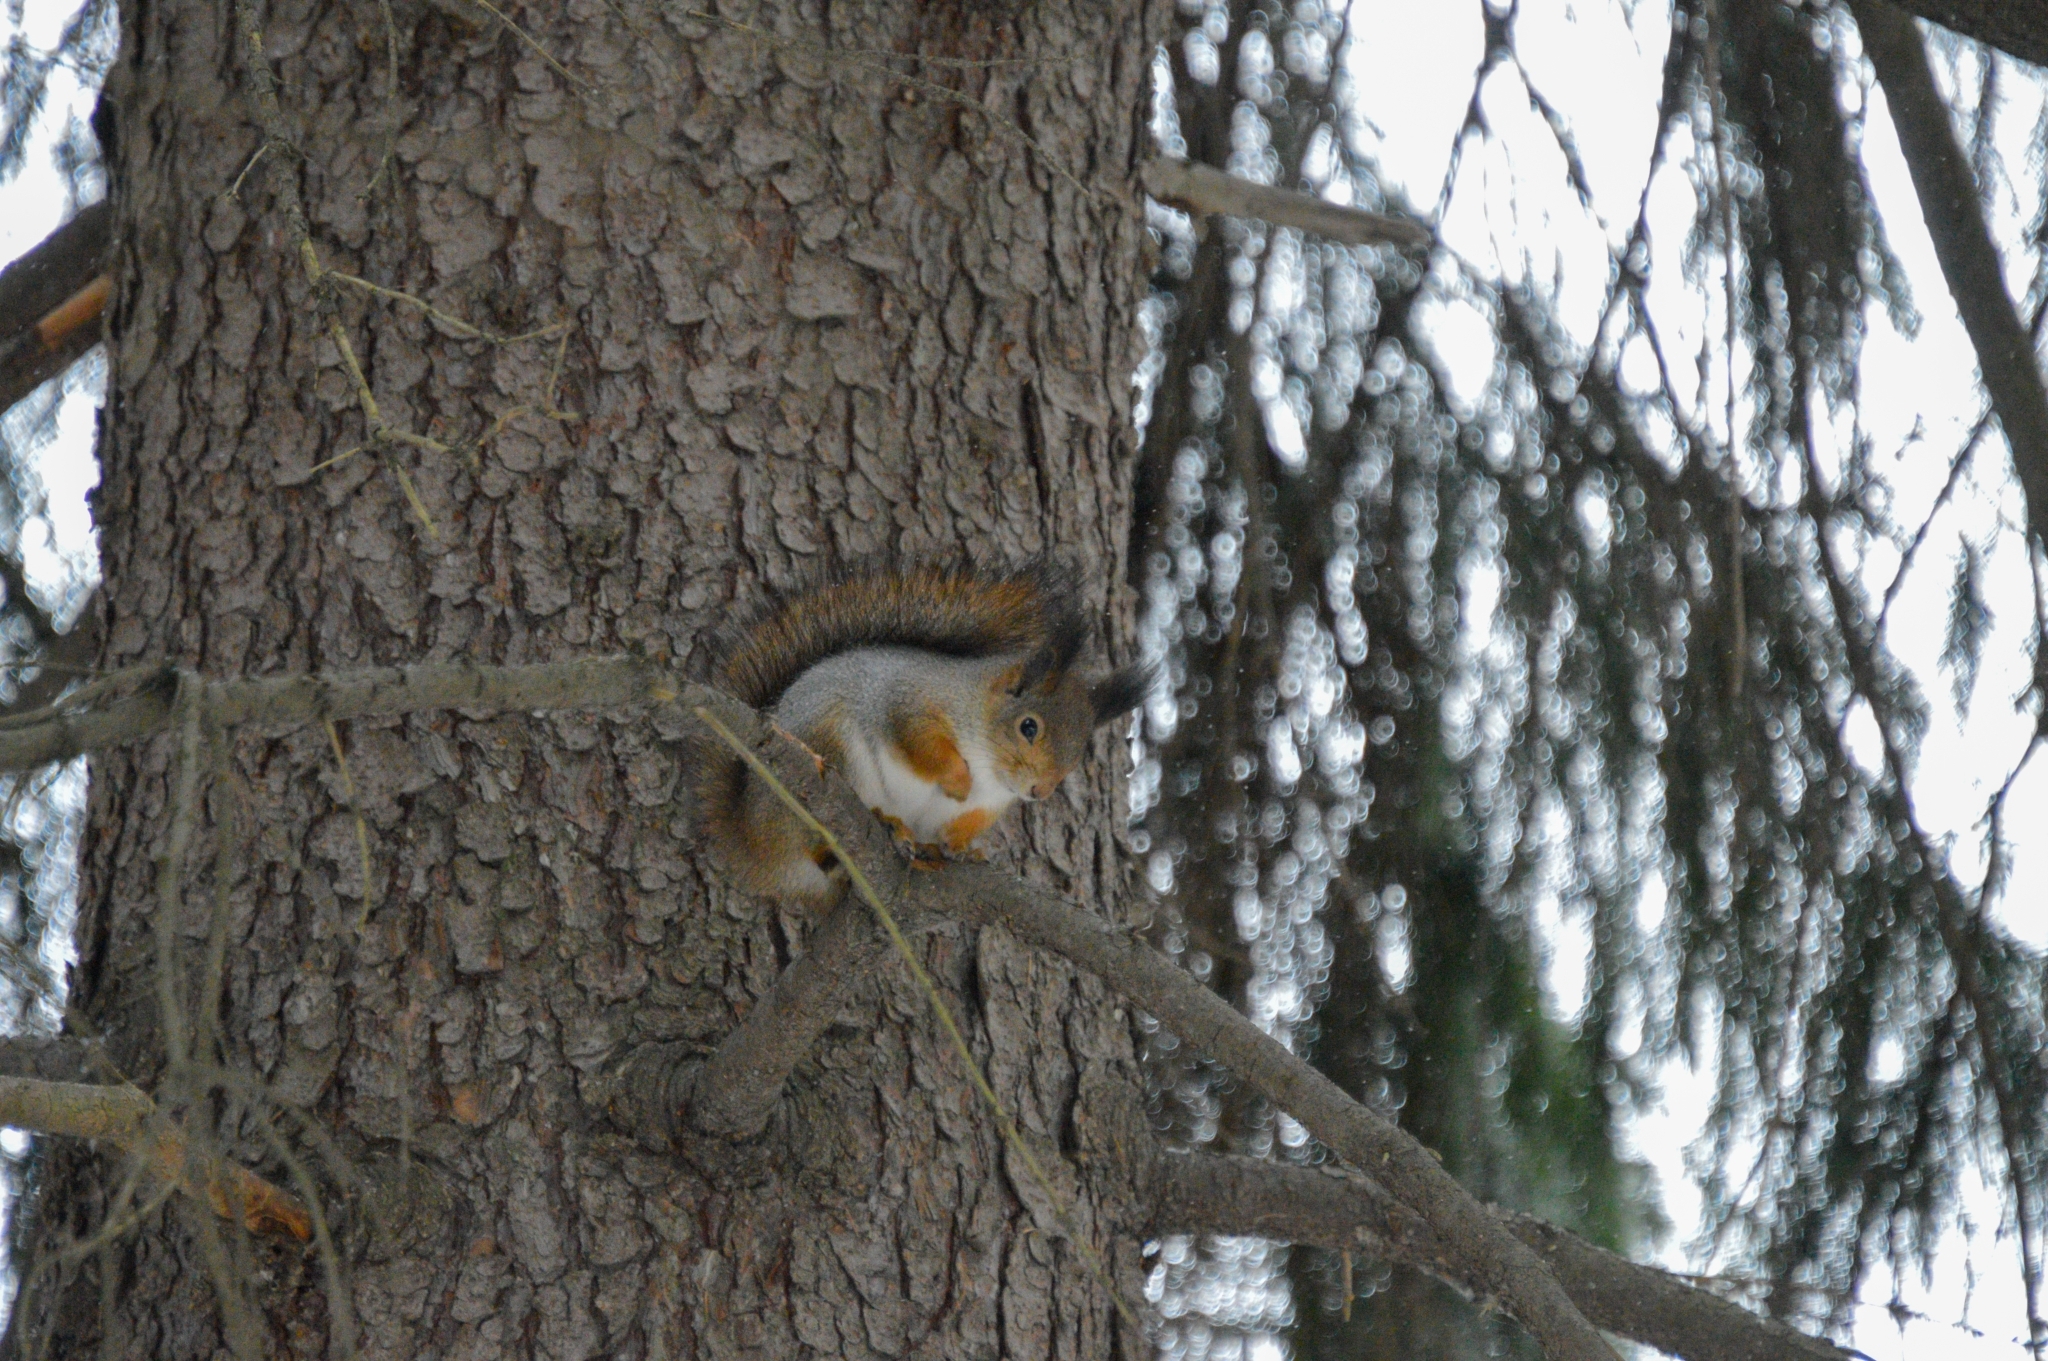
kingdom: Animalia
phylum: Chordata
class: Mammalia
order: Rodentia
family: Sciuridae
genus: Sciurus
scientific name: Sciurus vulgaris
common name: Eurasian red squirrel
